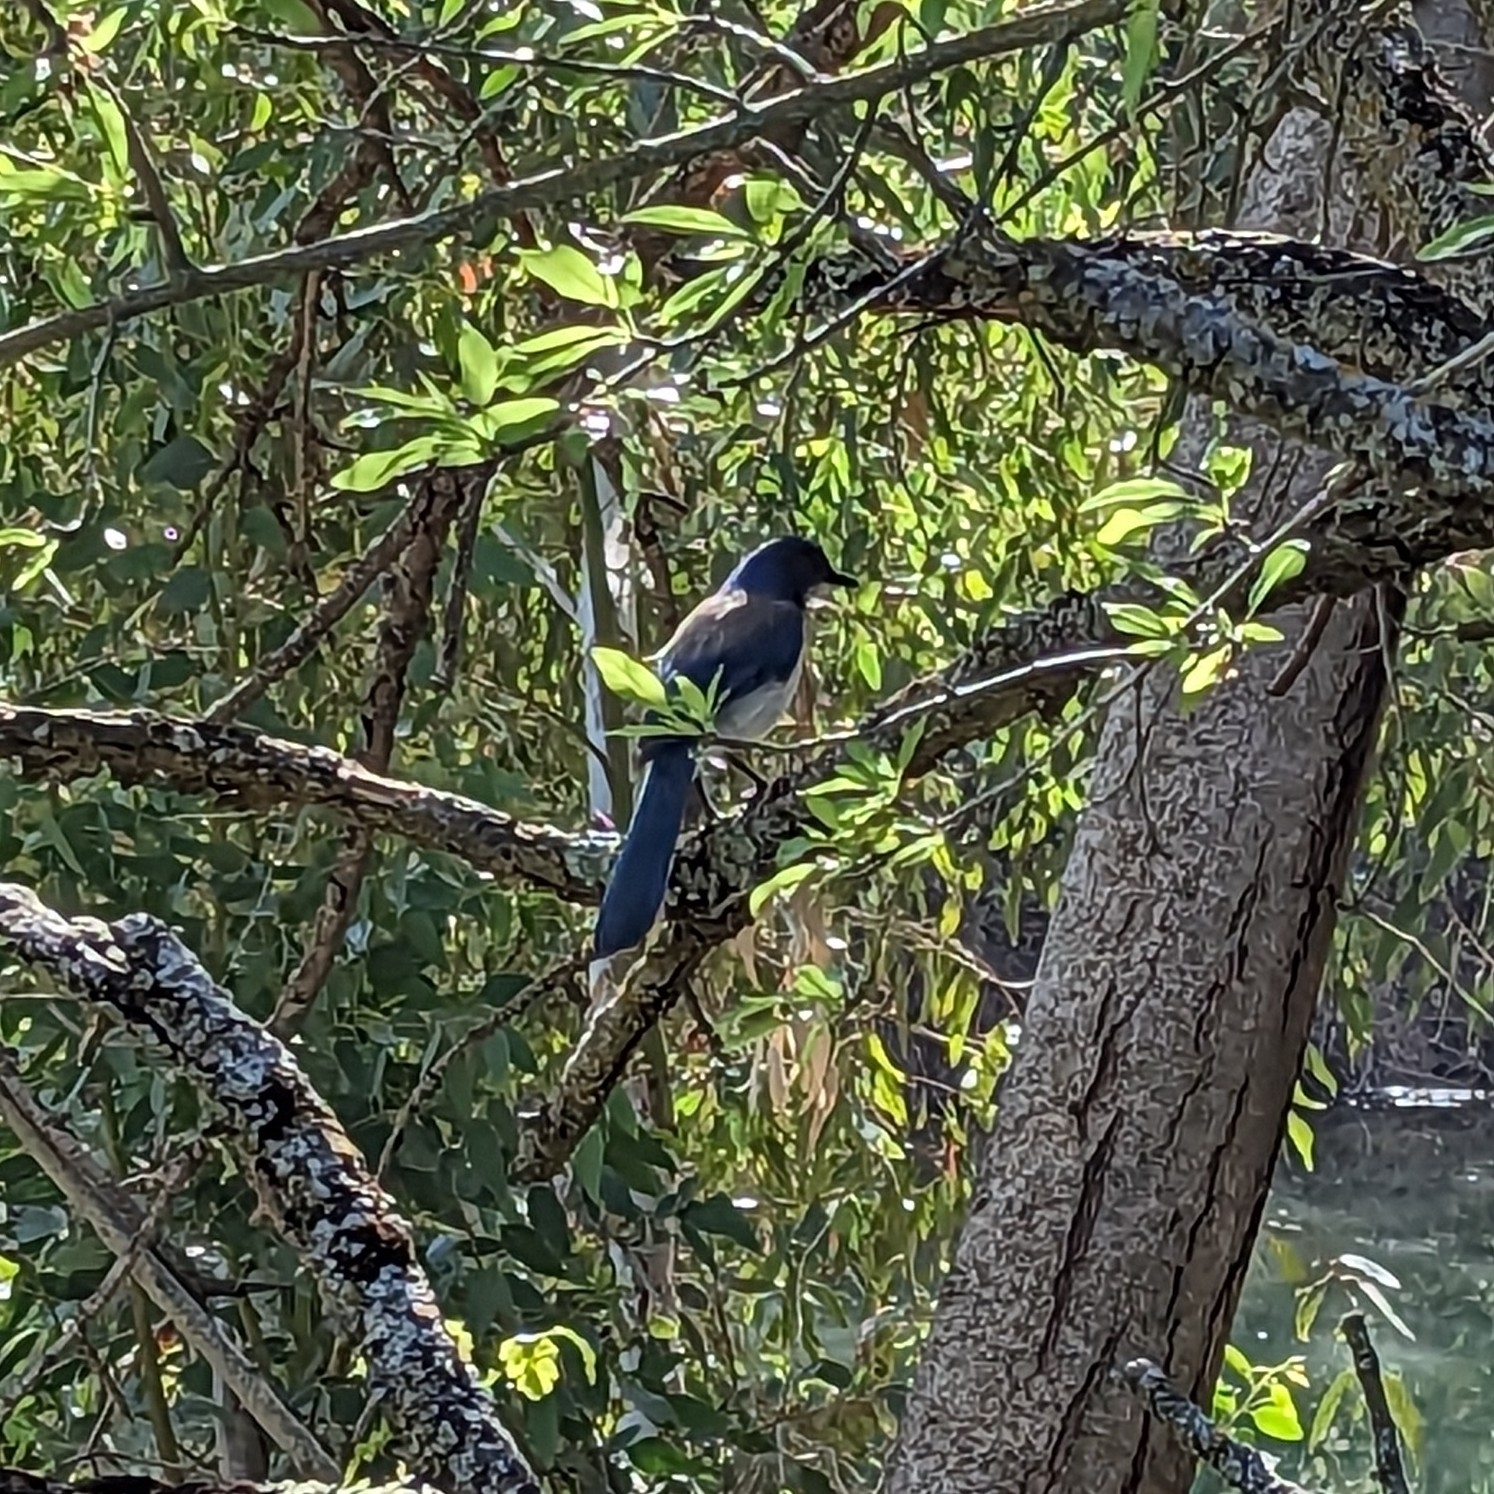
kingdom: Animalia
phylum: Chordata
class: Aves
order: Passeriformes
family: Corvidae
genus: Aphelocoma
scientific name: Aphelocoma californica
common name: California scrub-jay
